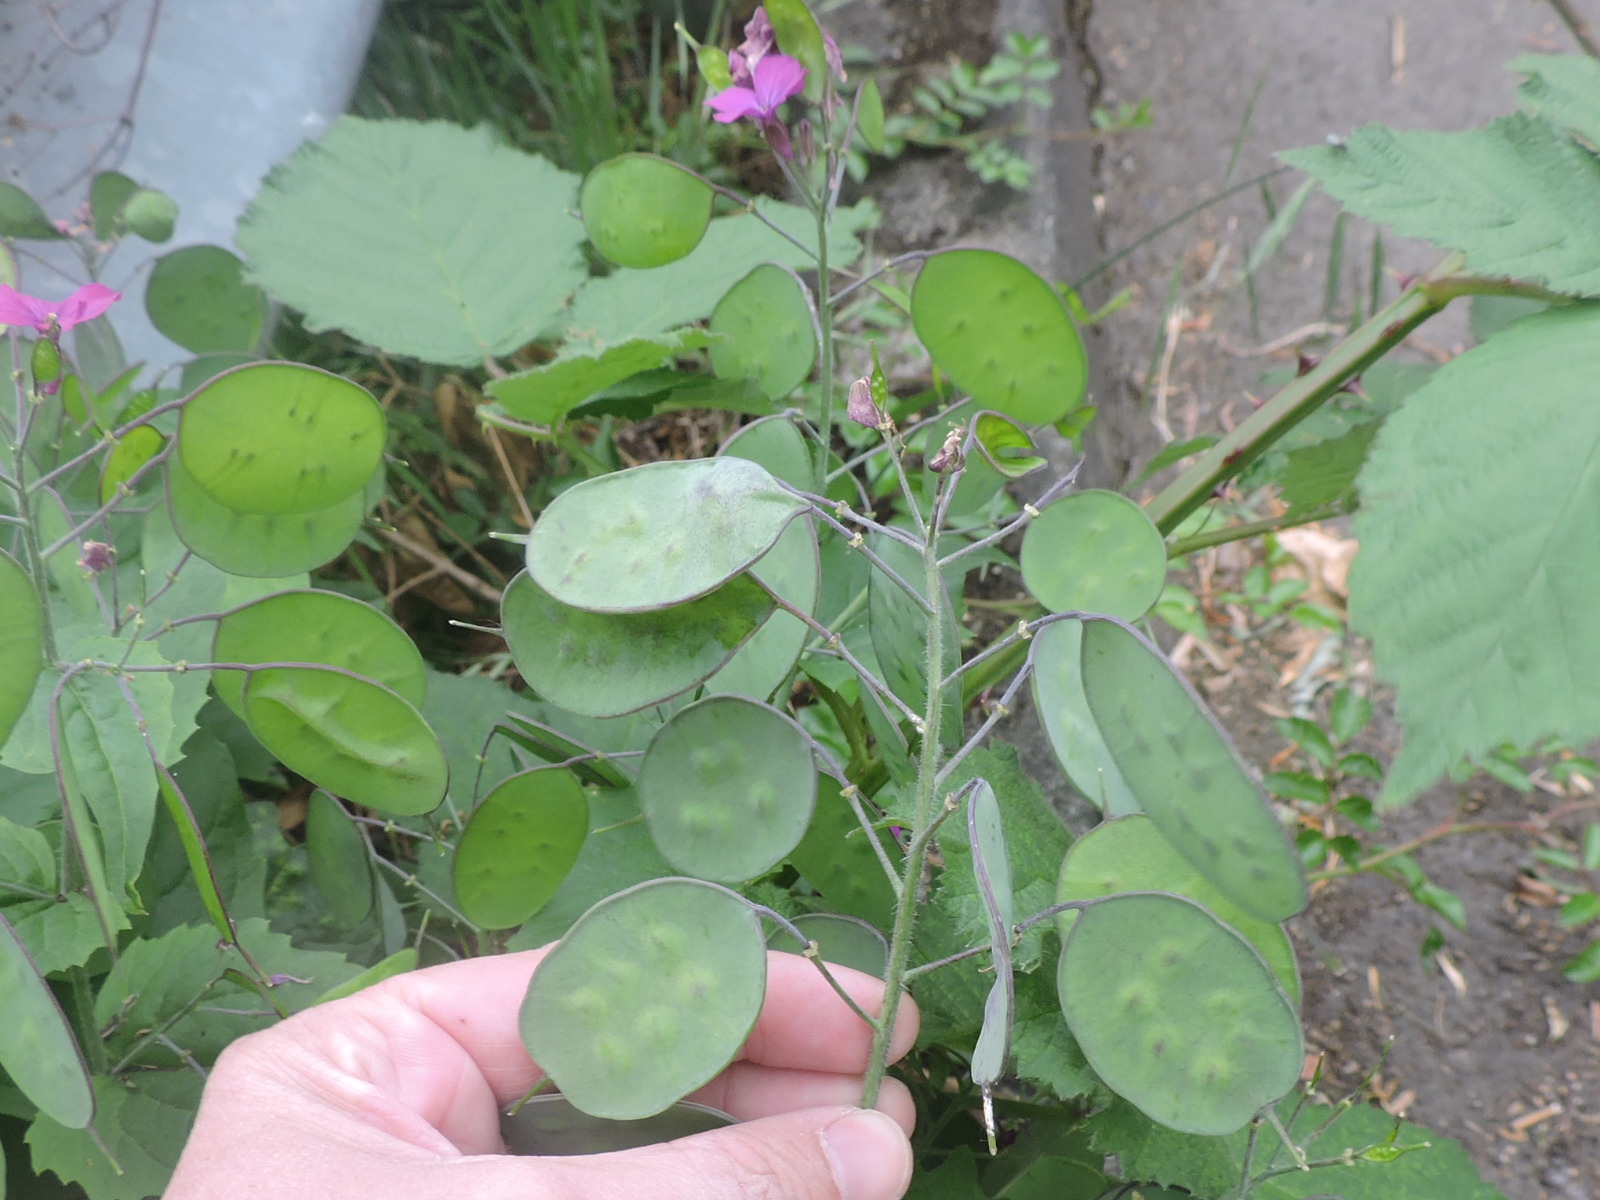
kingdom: Plantae
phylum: Tracheophyta
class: Magnoliopsida
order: Brassicales
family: Brassicaceae
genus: Lunaria
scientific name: Lunaria annua
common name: Honesty
